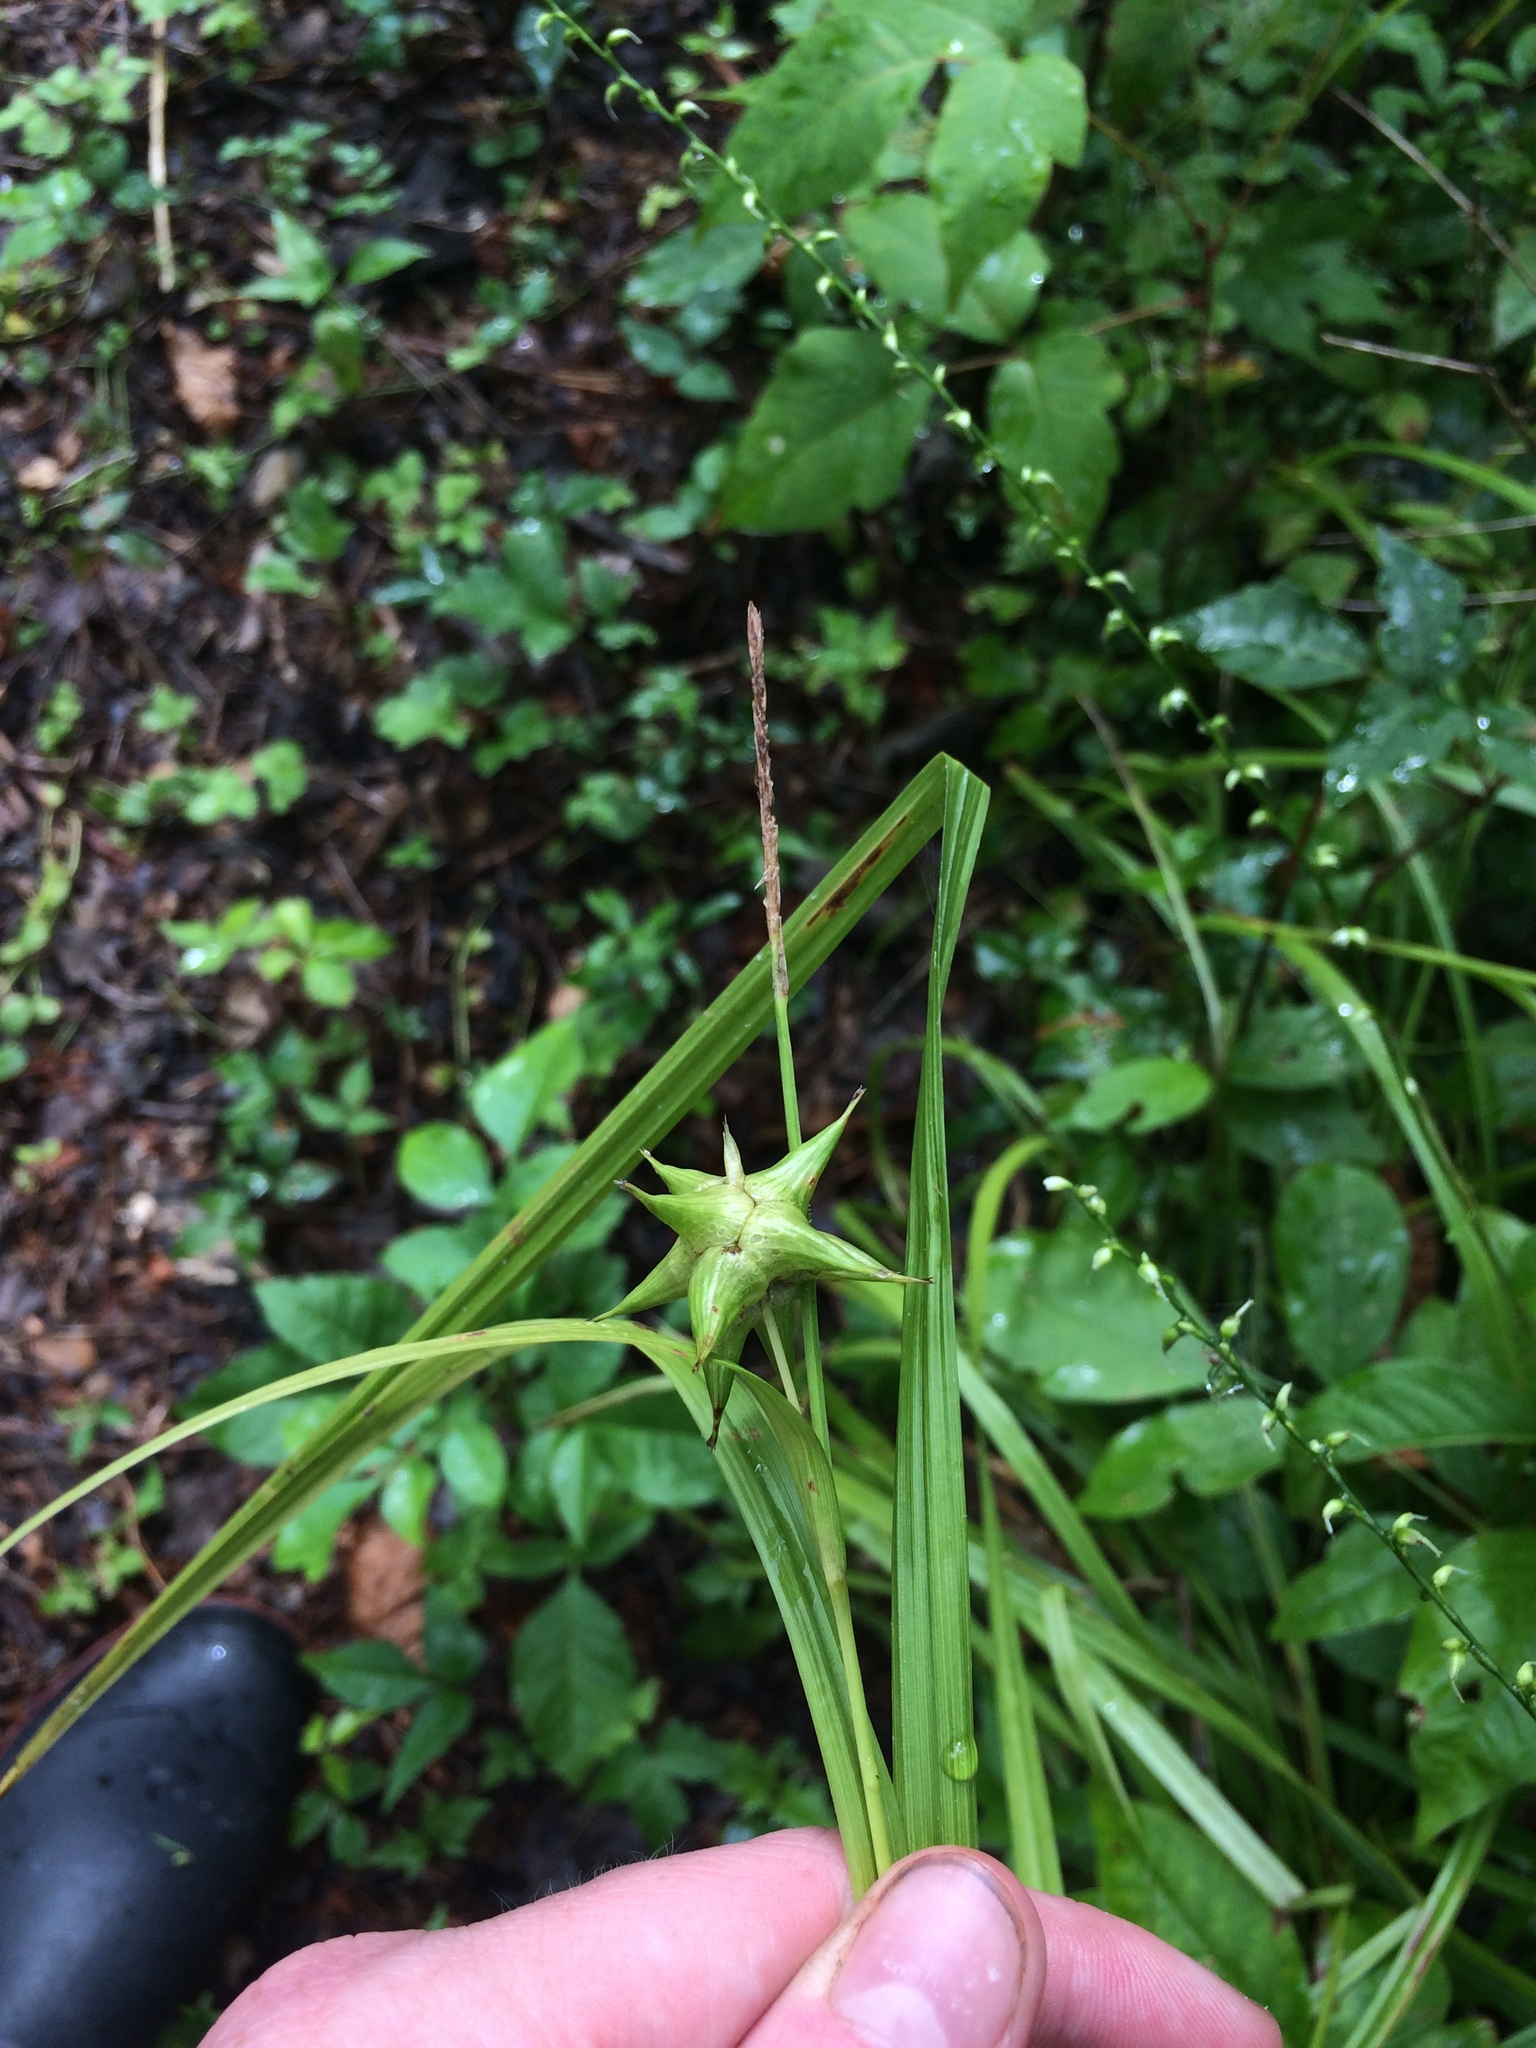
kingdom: Plantae
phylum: Tracheophyta
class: Liliopsida
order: Poales
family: Cyperaceae
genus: Carex
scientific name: Carex grayi
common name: Asa gray's sedge
